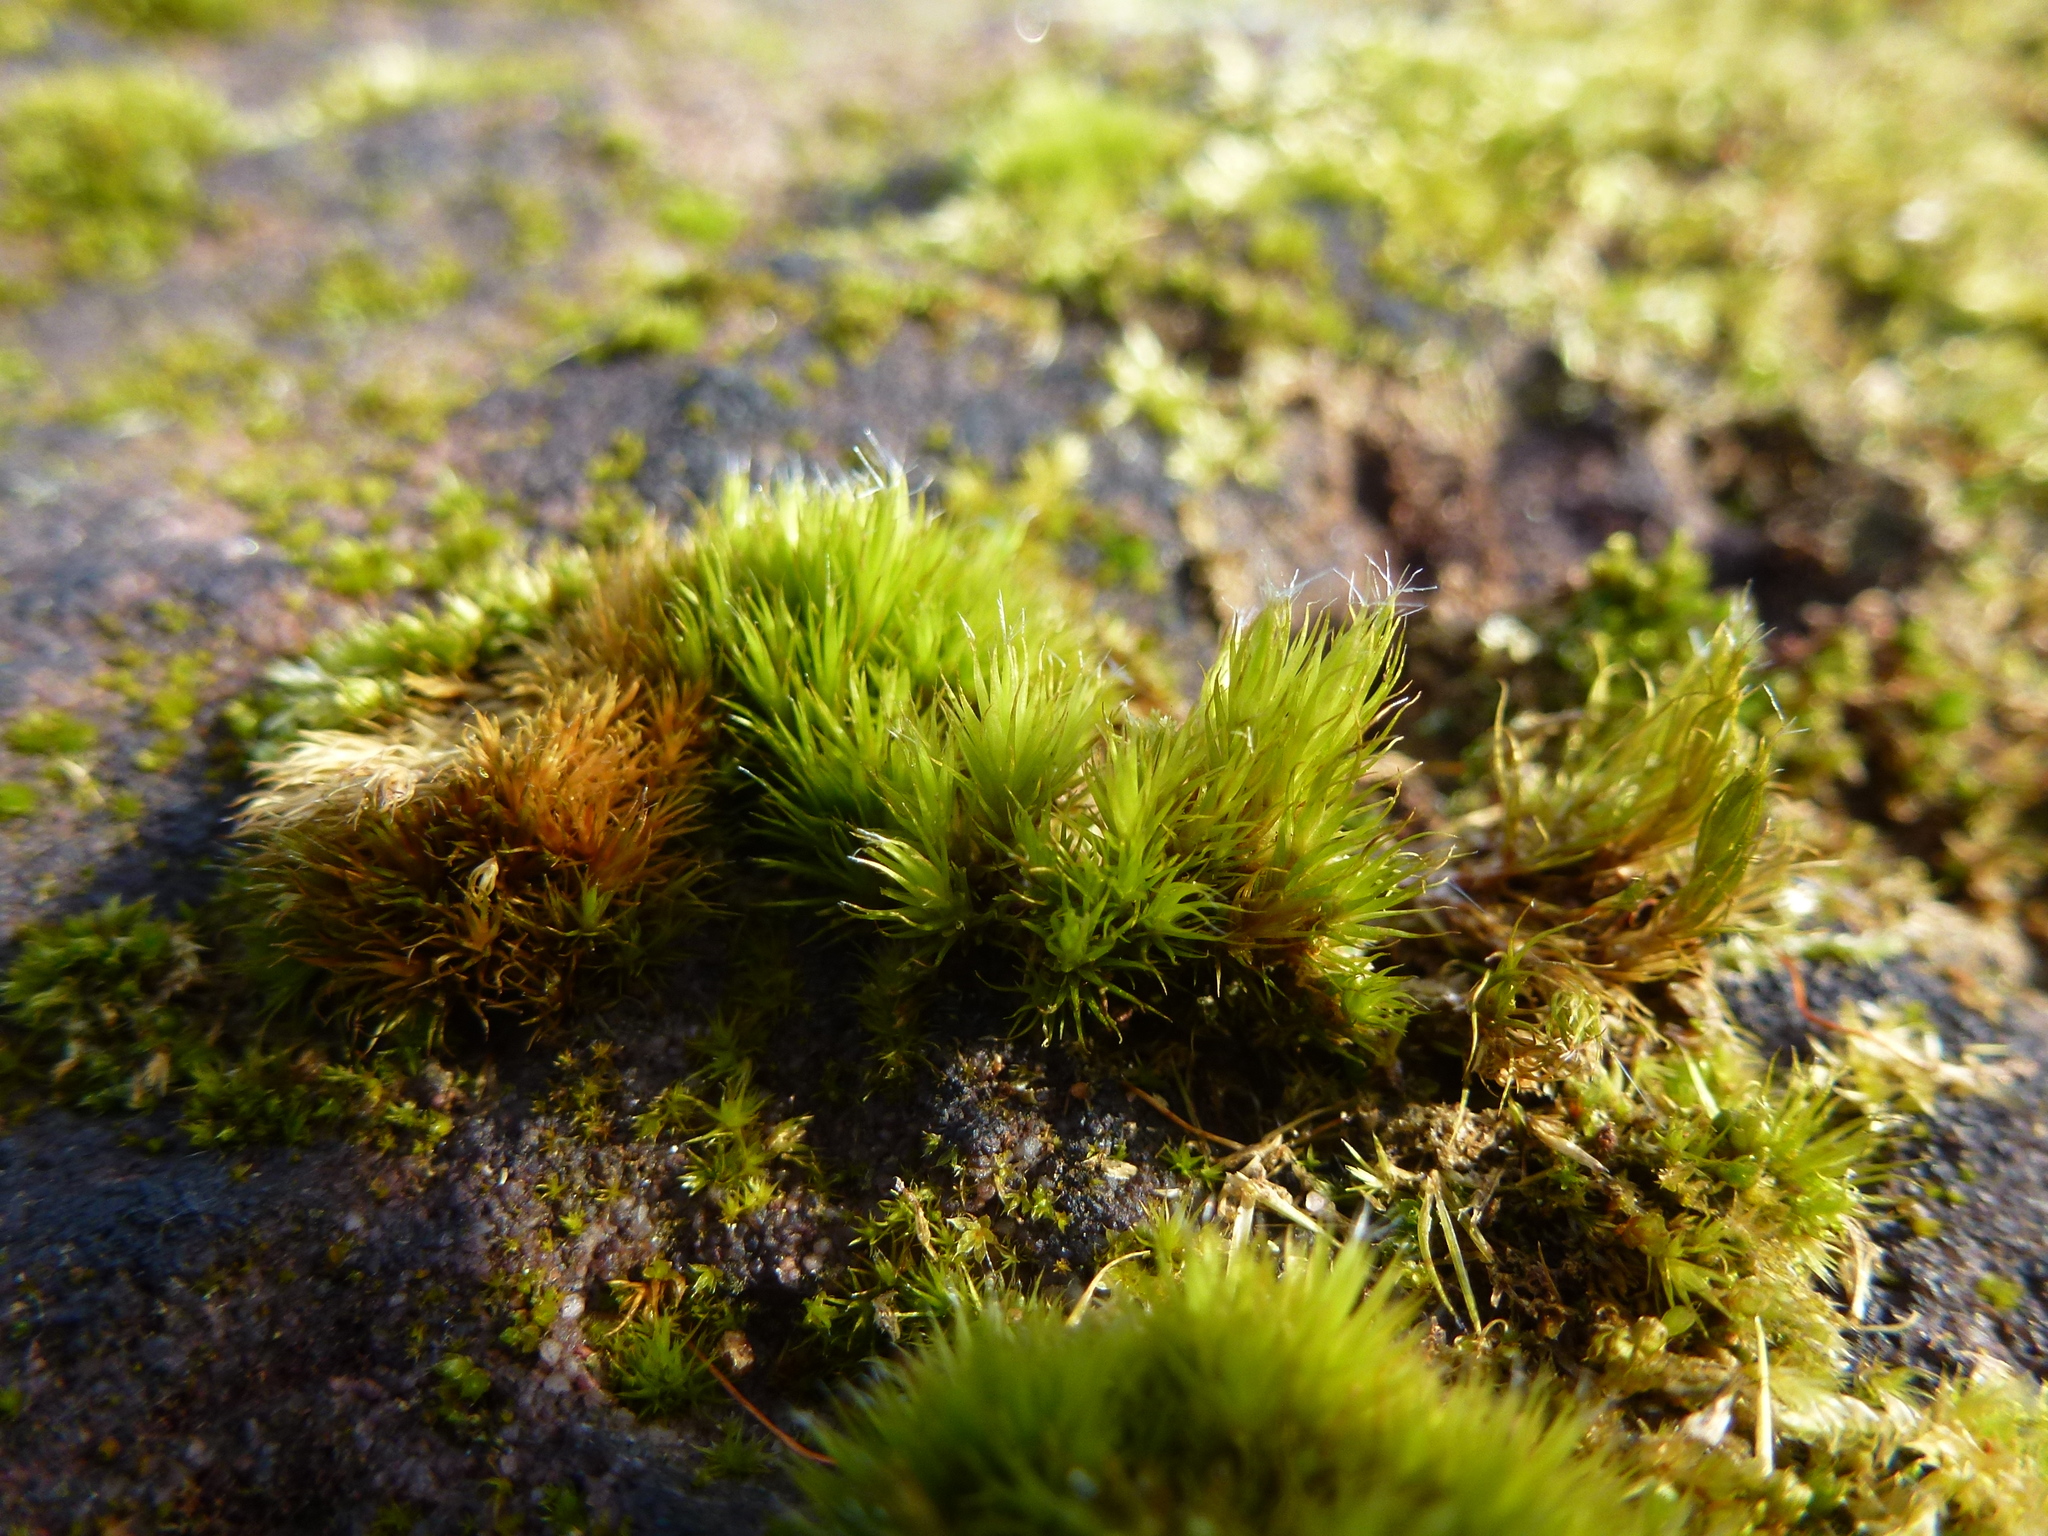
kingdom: Plantae
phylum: Bryophyta
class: Bryopsida
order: Dicranales
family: Leucobryaceae
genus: Campylopus
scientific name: Campylopus introflexus
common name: Heath star moss
